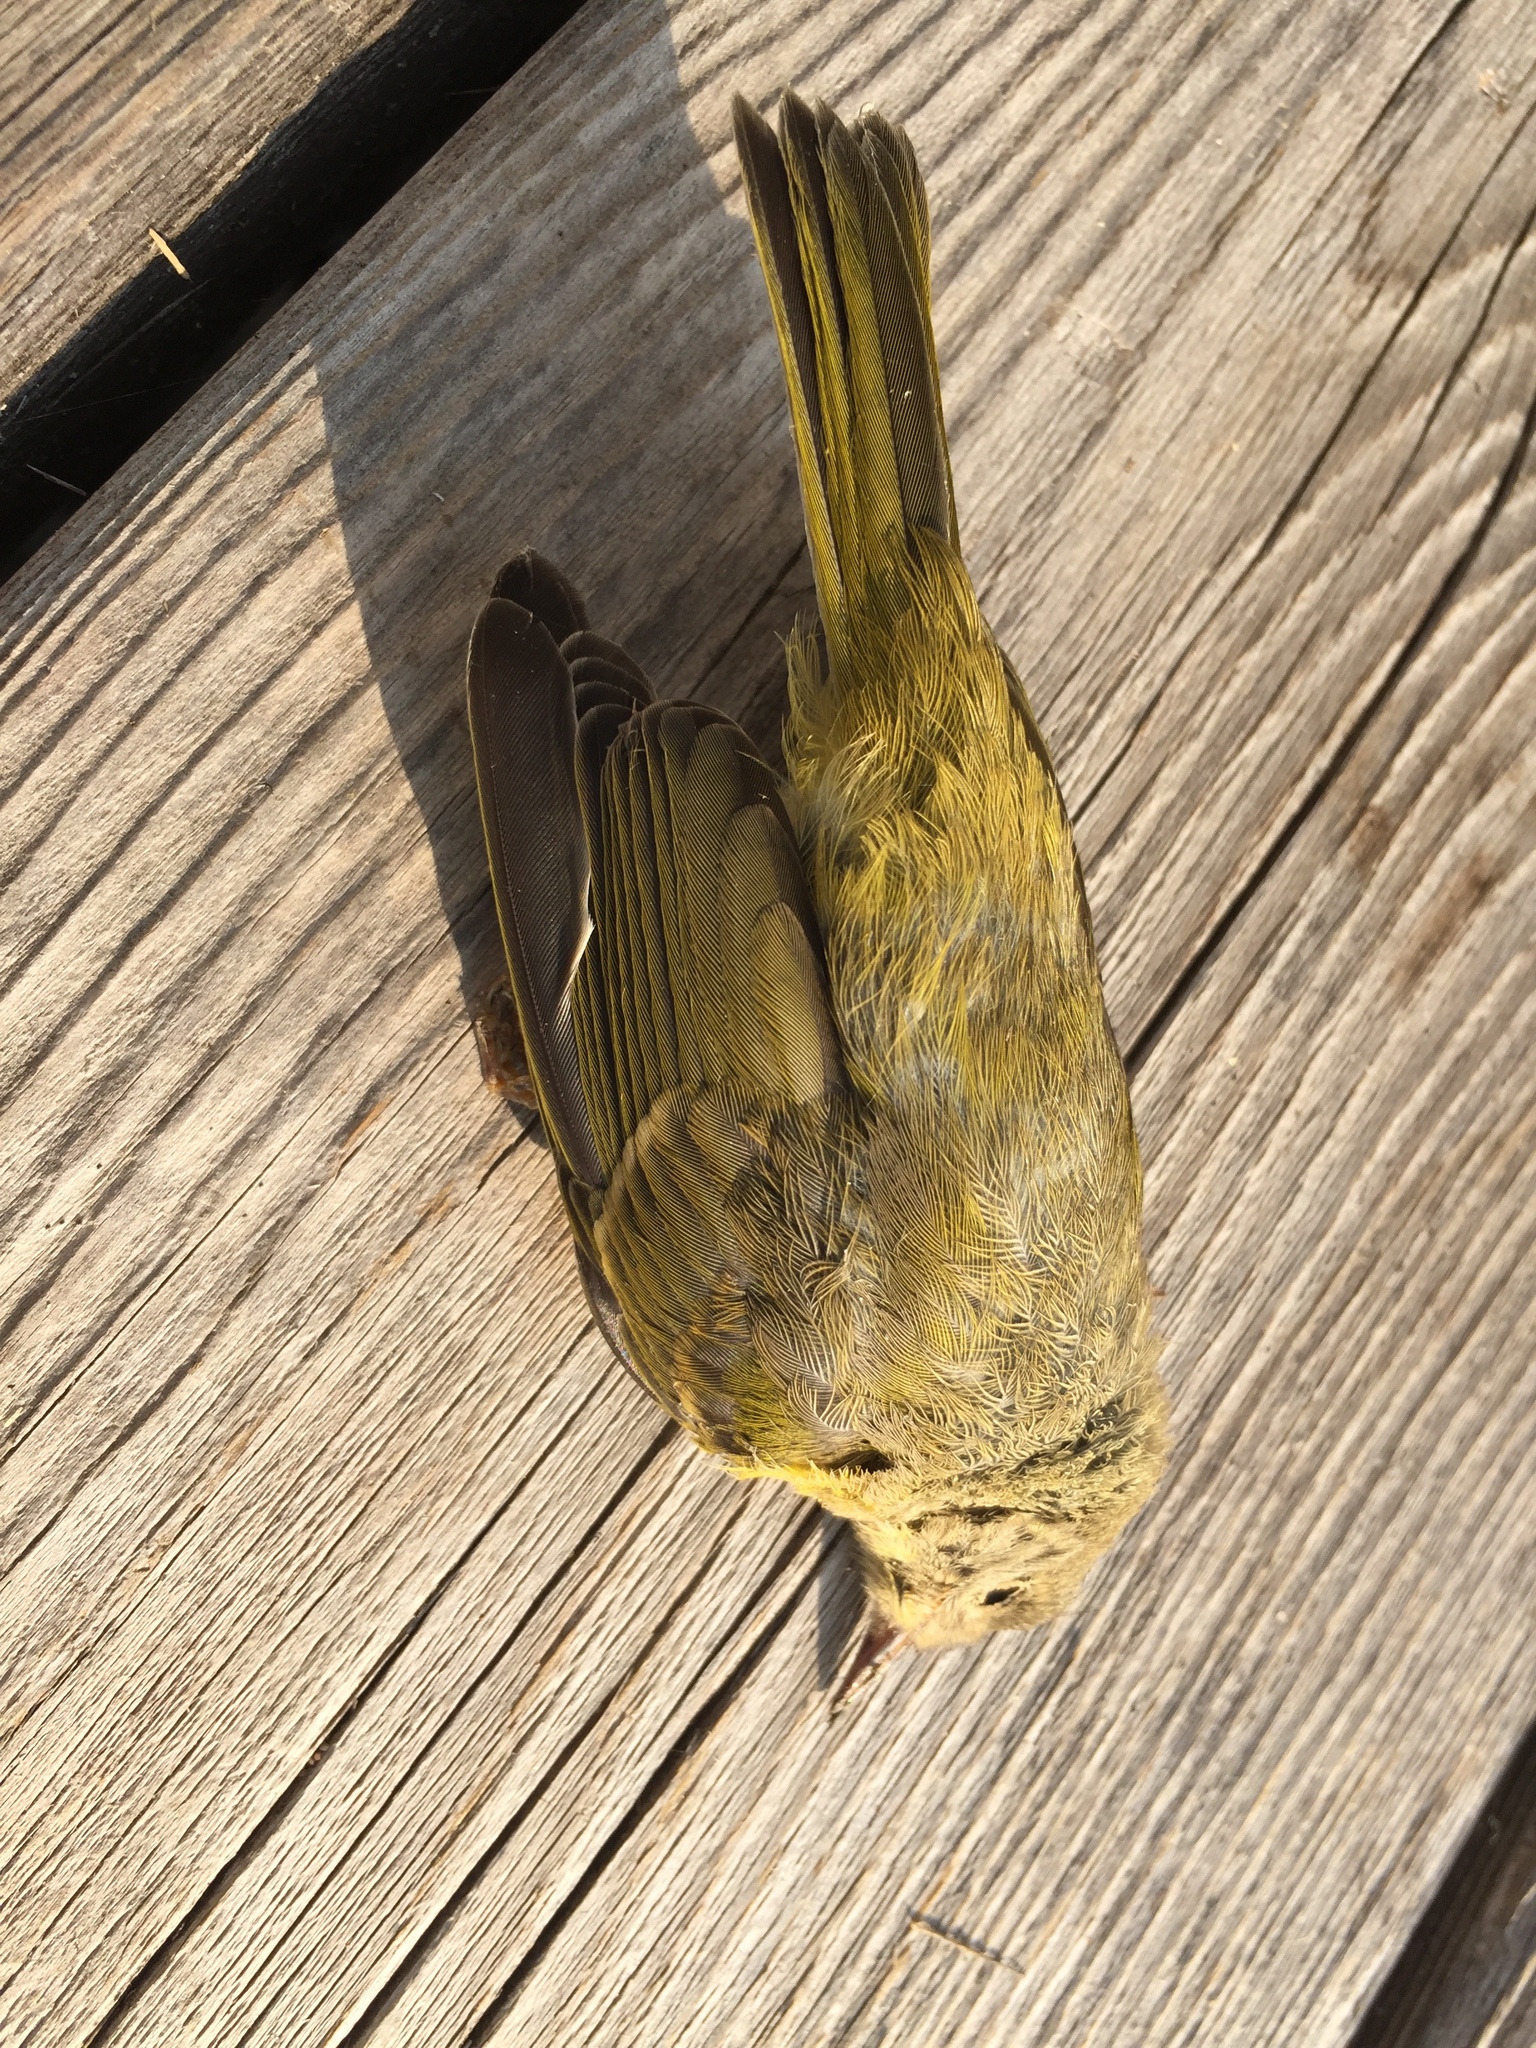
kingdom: Animalia
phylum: Chordata
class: Aves
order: Passeriformes
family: Parulidae
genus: Leiothlypis
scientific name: Leiothlypis celata
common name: Orange-crowned warbler
